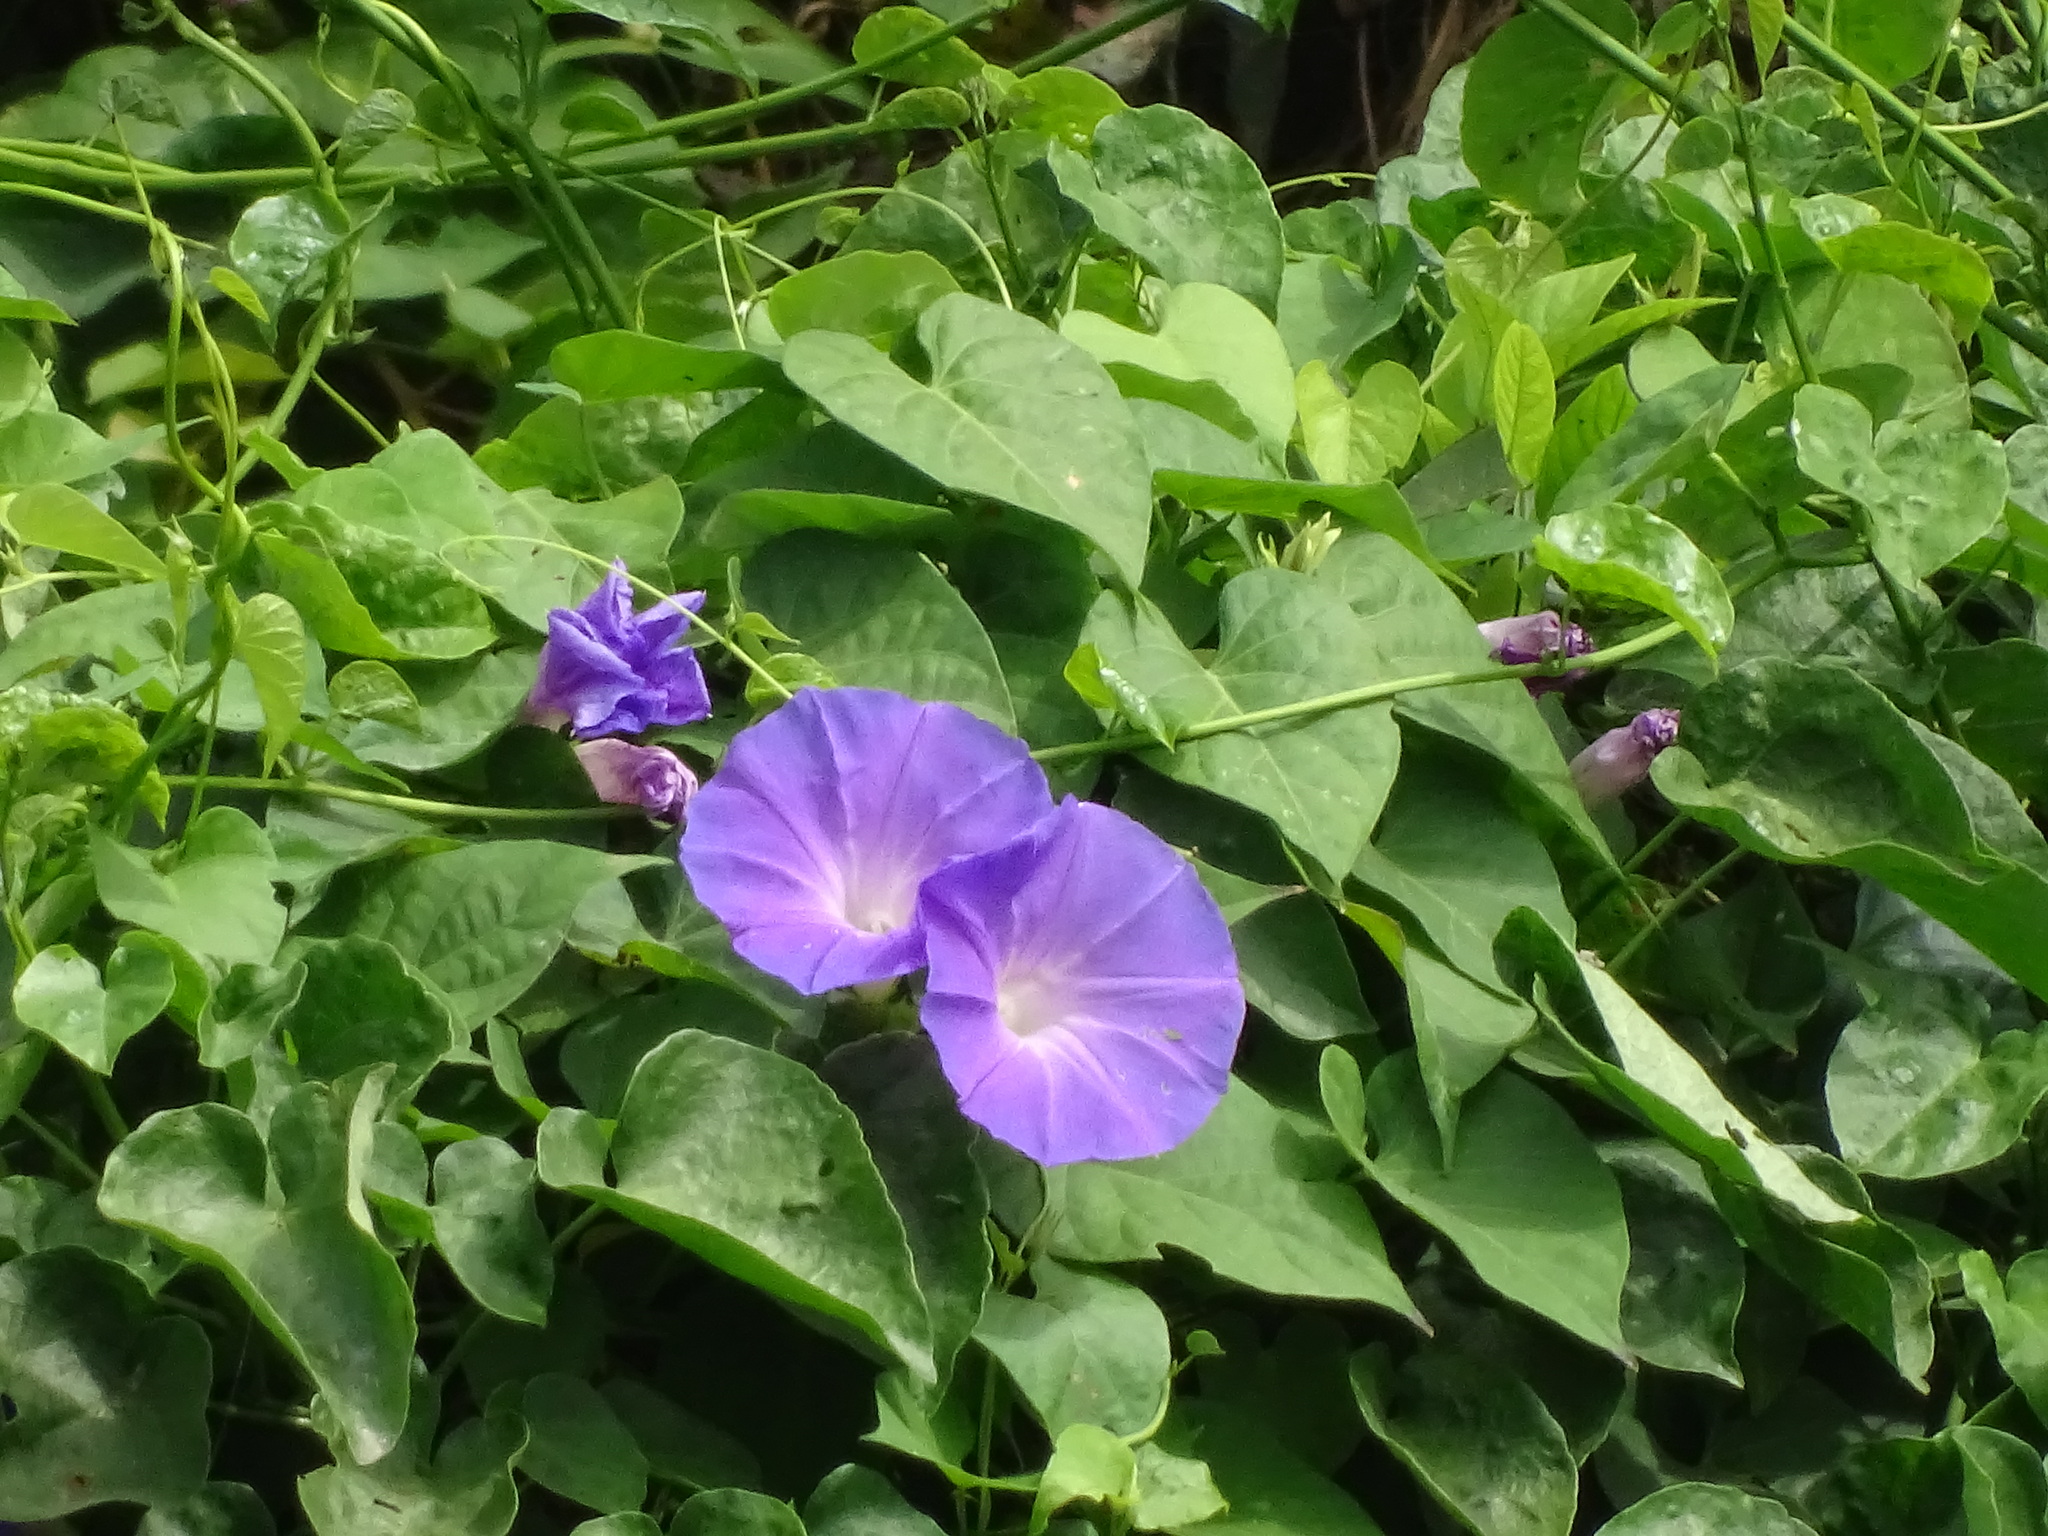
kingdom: Plantae
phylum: Tracheophyta
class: Magnoliopsida
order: Solanales
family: Convolvulaceae
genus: Ipomoea
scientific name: Ipomoea mitchelliae
